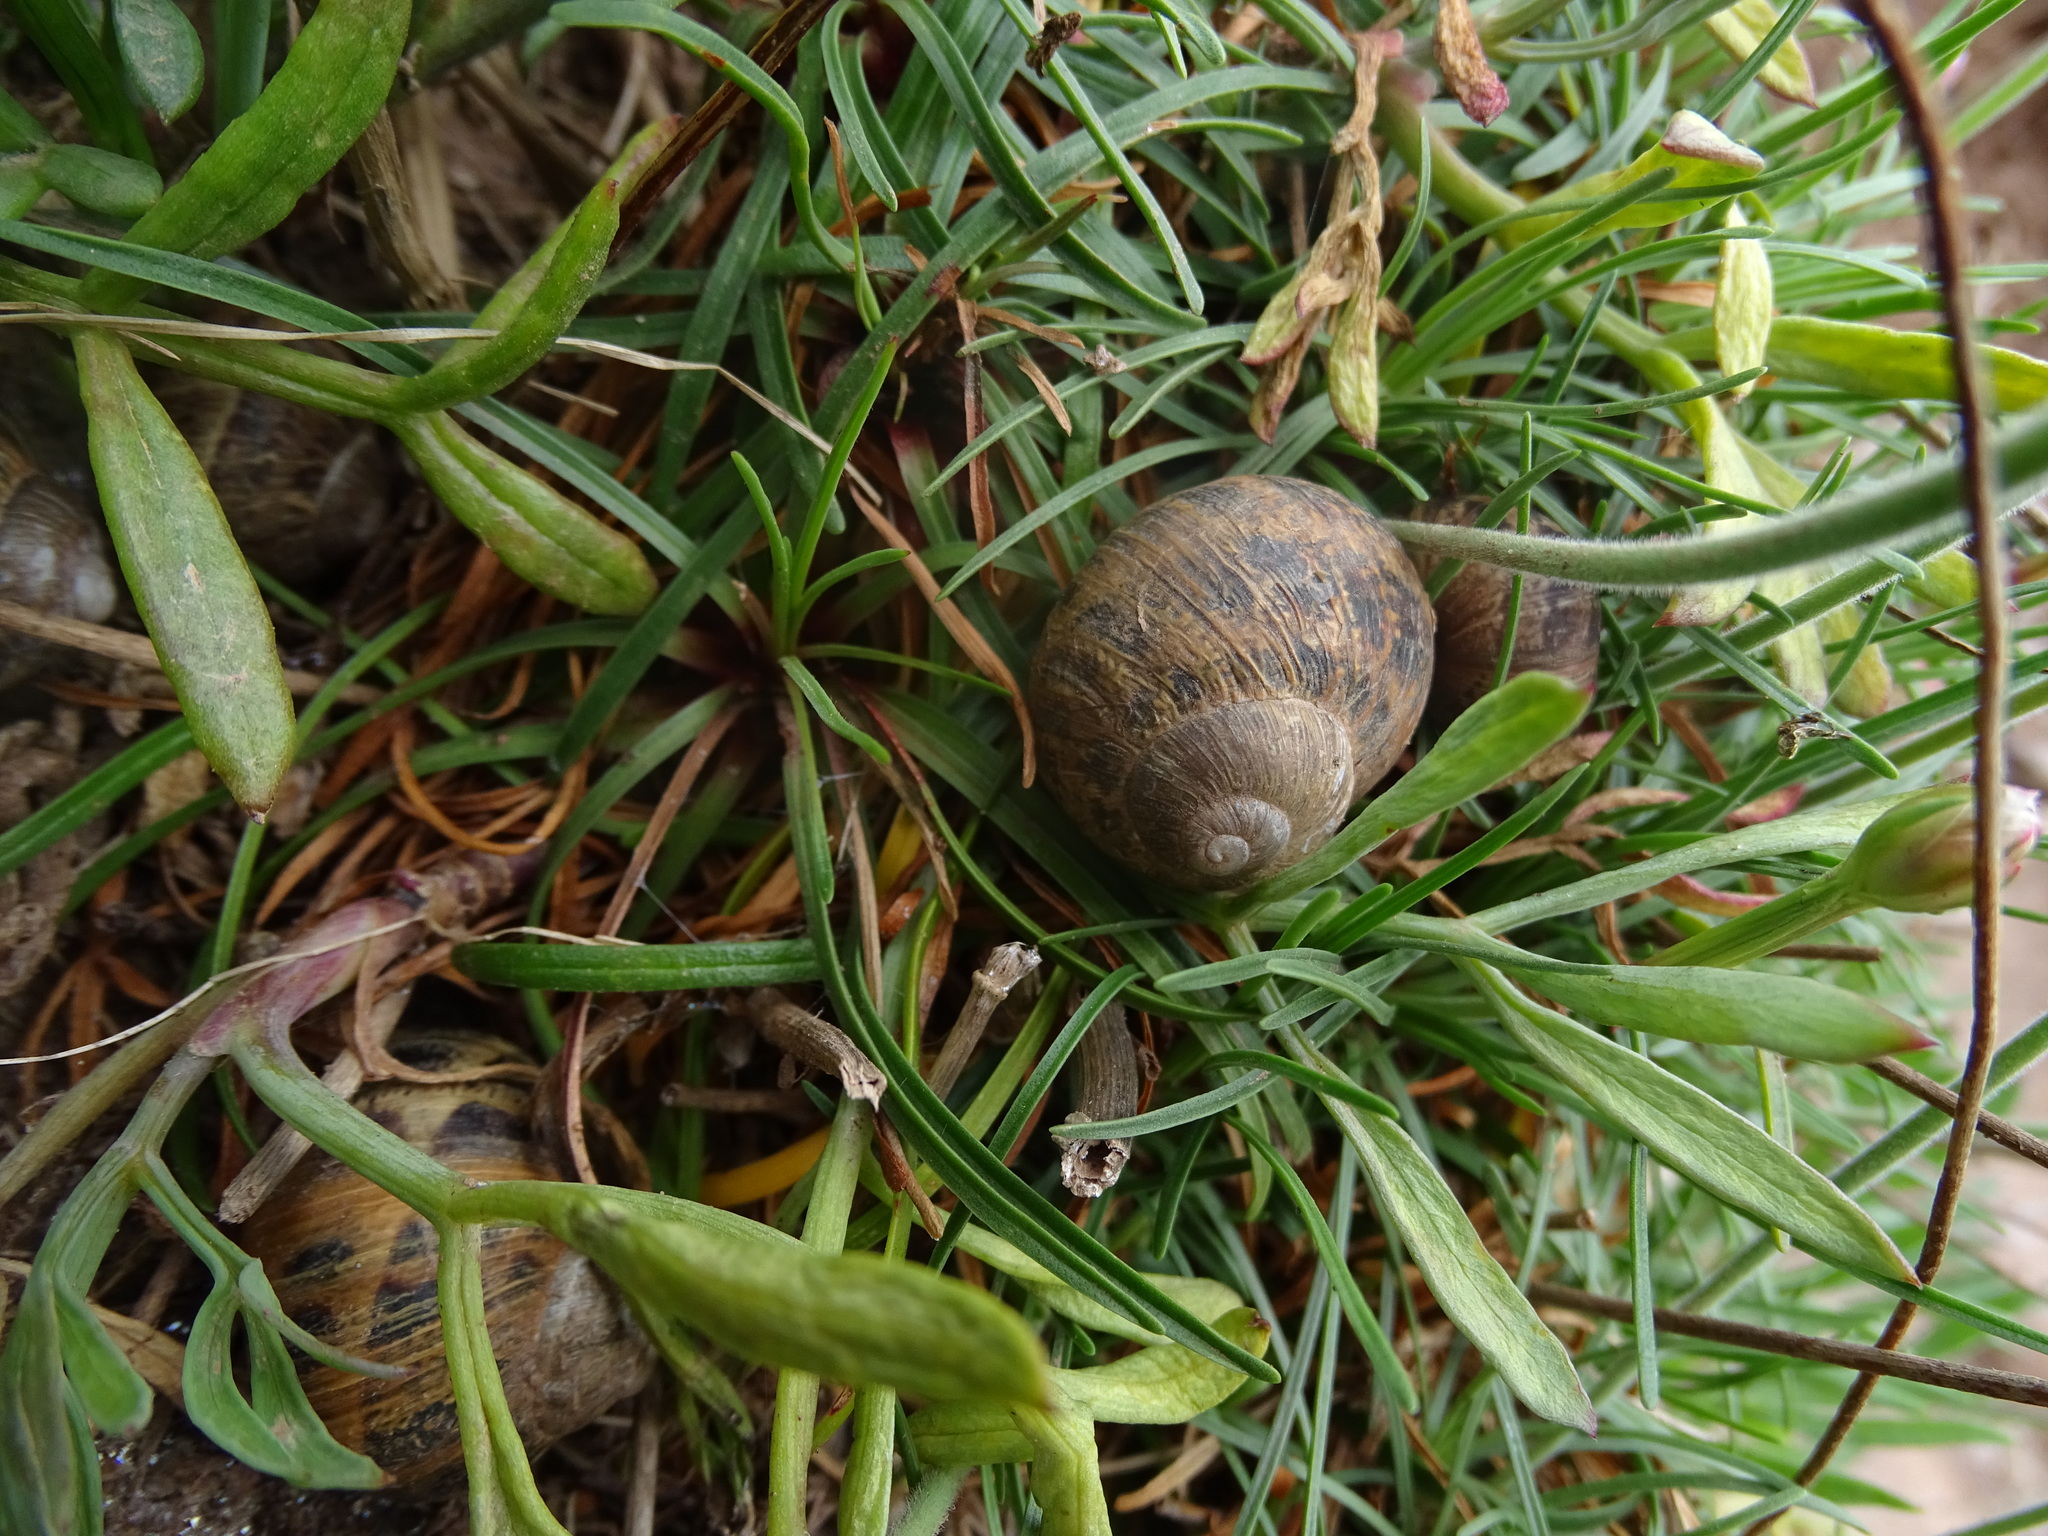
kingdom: Animalia
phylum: Mollusca
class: Gastropoda
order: Stylommatophora
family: Helicidae
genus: Cornu
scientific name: Cornu aspersum
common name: Brown garden snail
